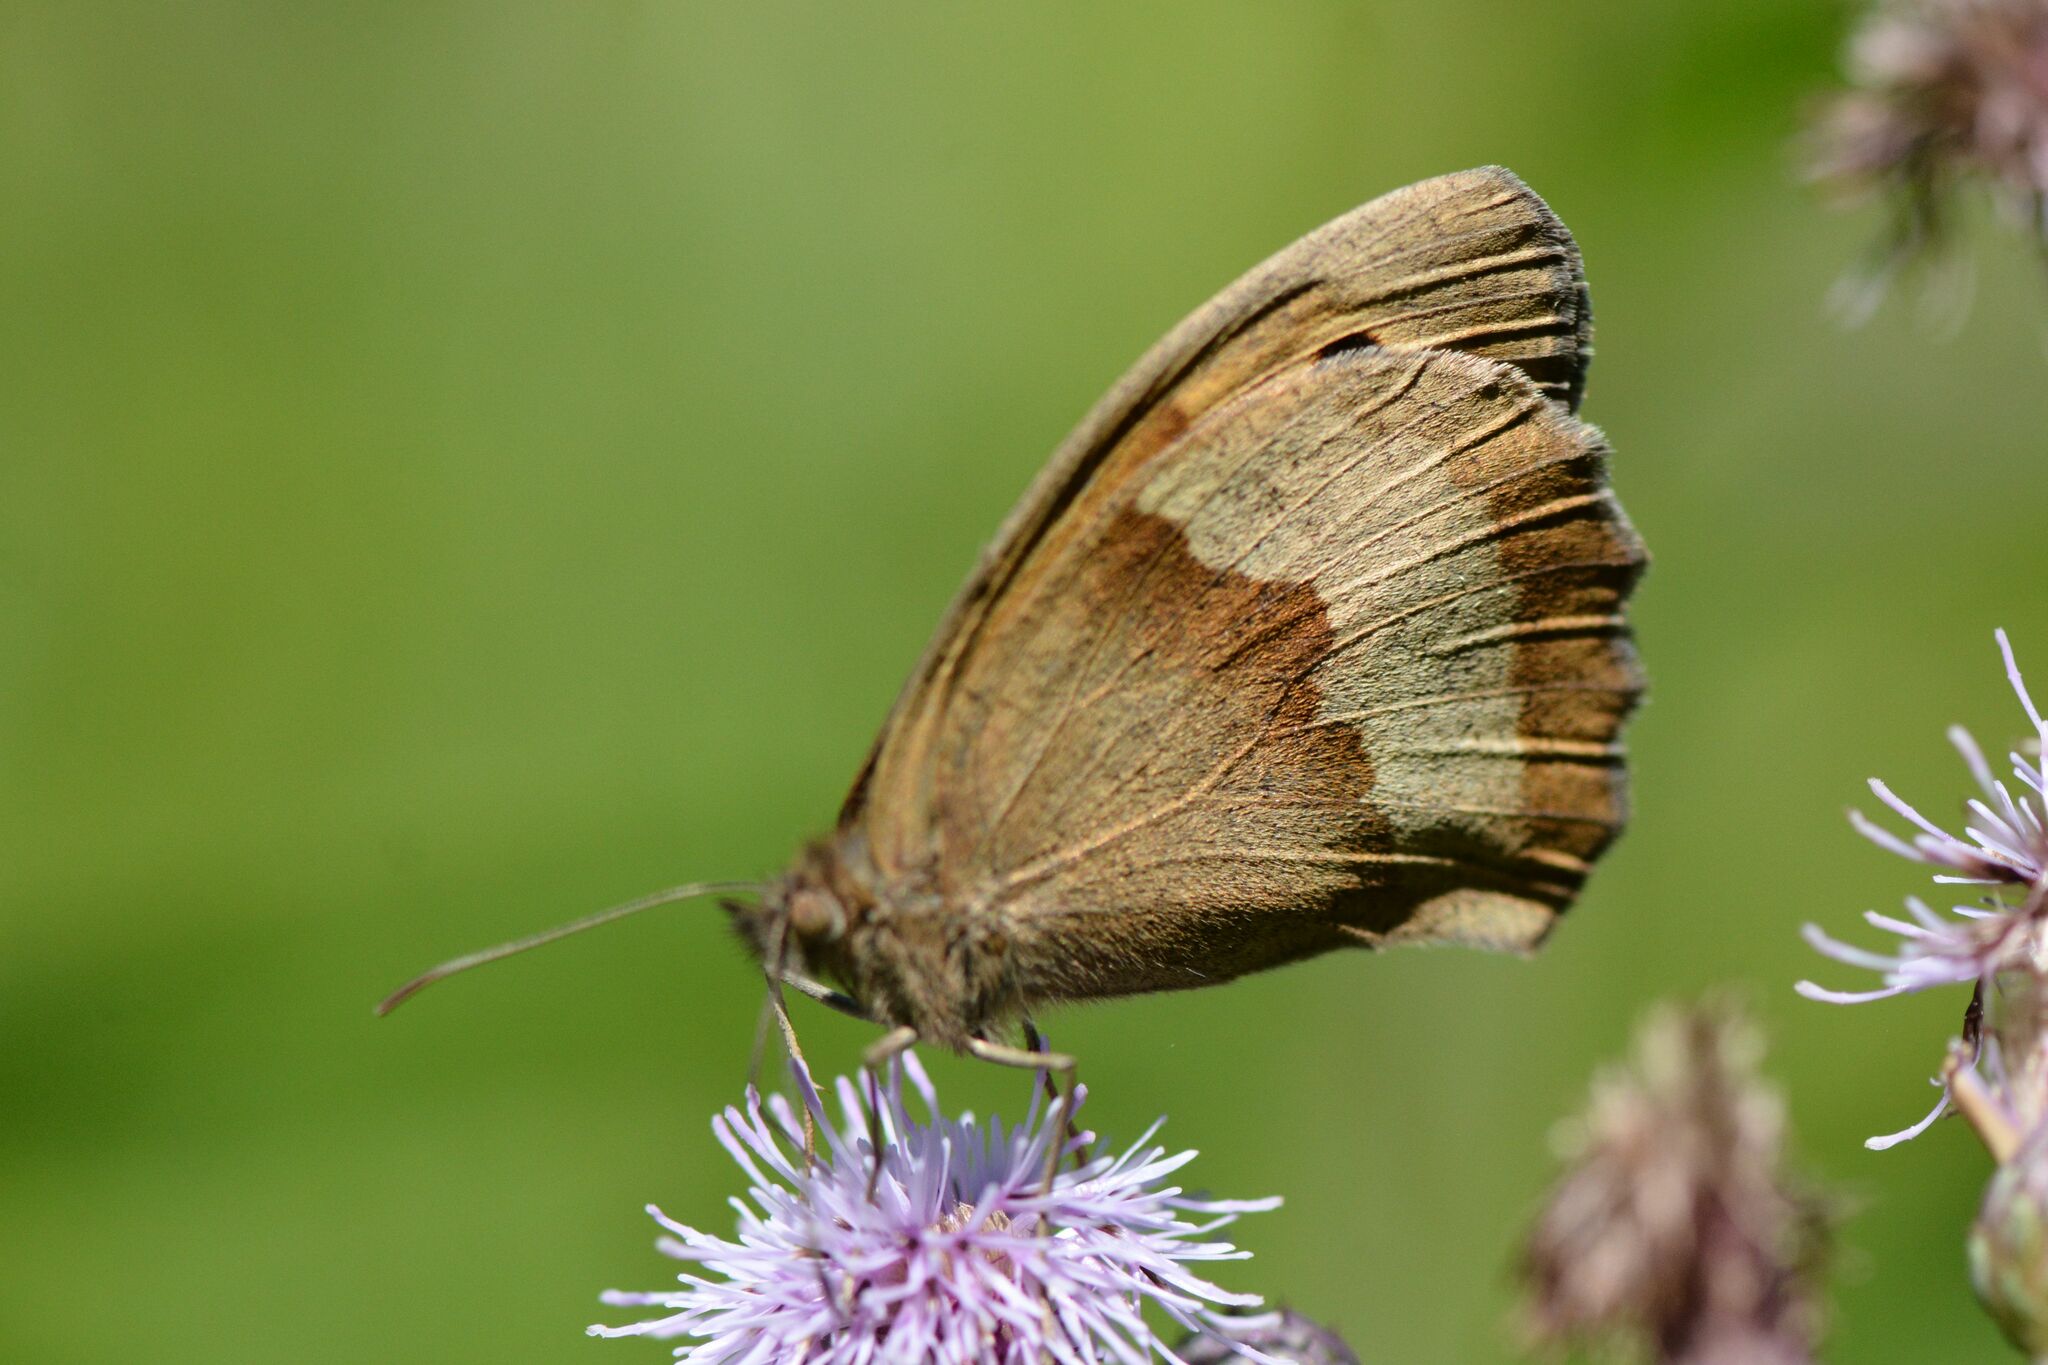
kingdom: Animalia
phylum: Arthropoda
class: Insecta
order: Lepidoptera
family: Nymphalidae
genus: Maniola
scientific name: Maniola jurtina
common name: Meadow brown
